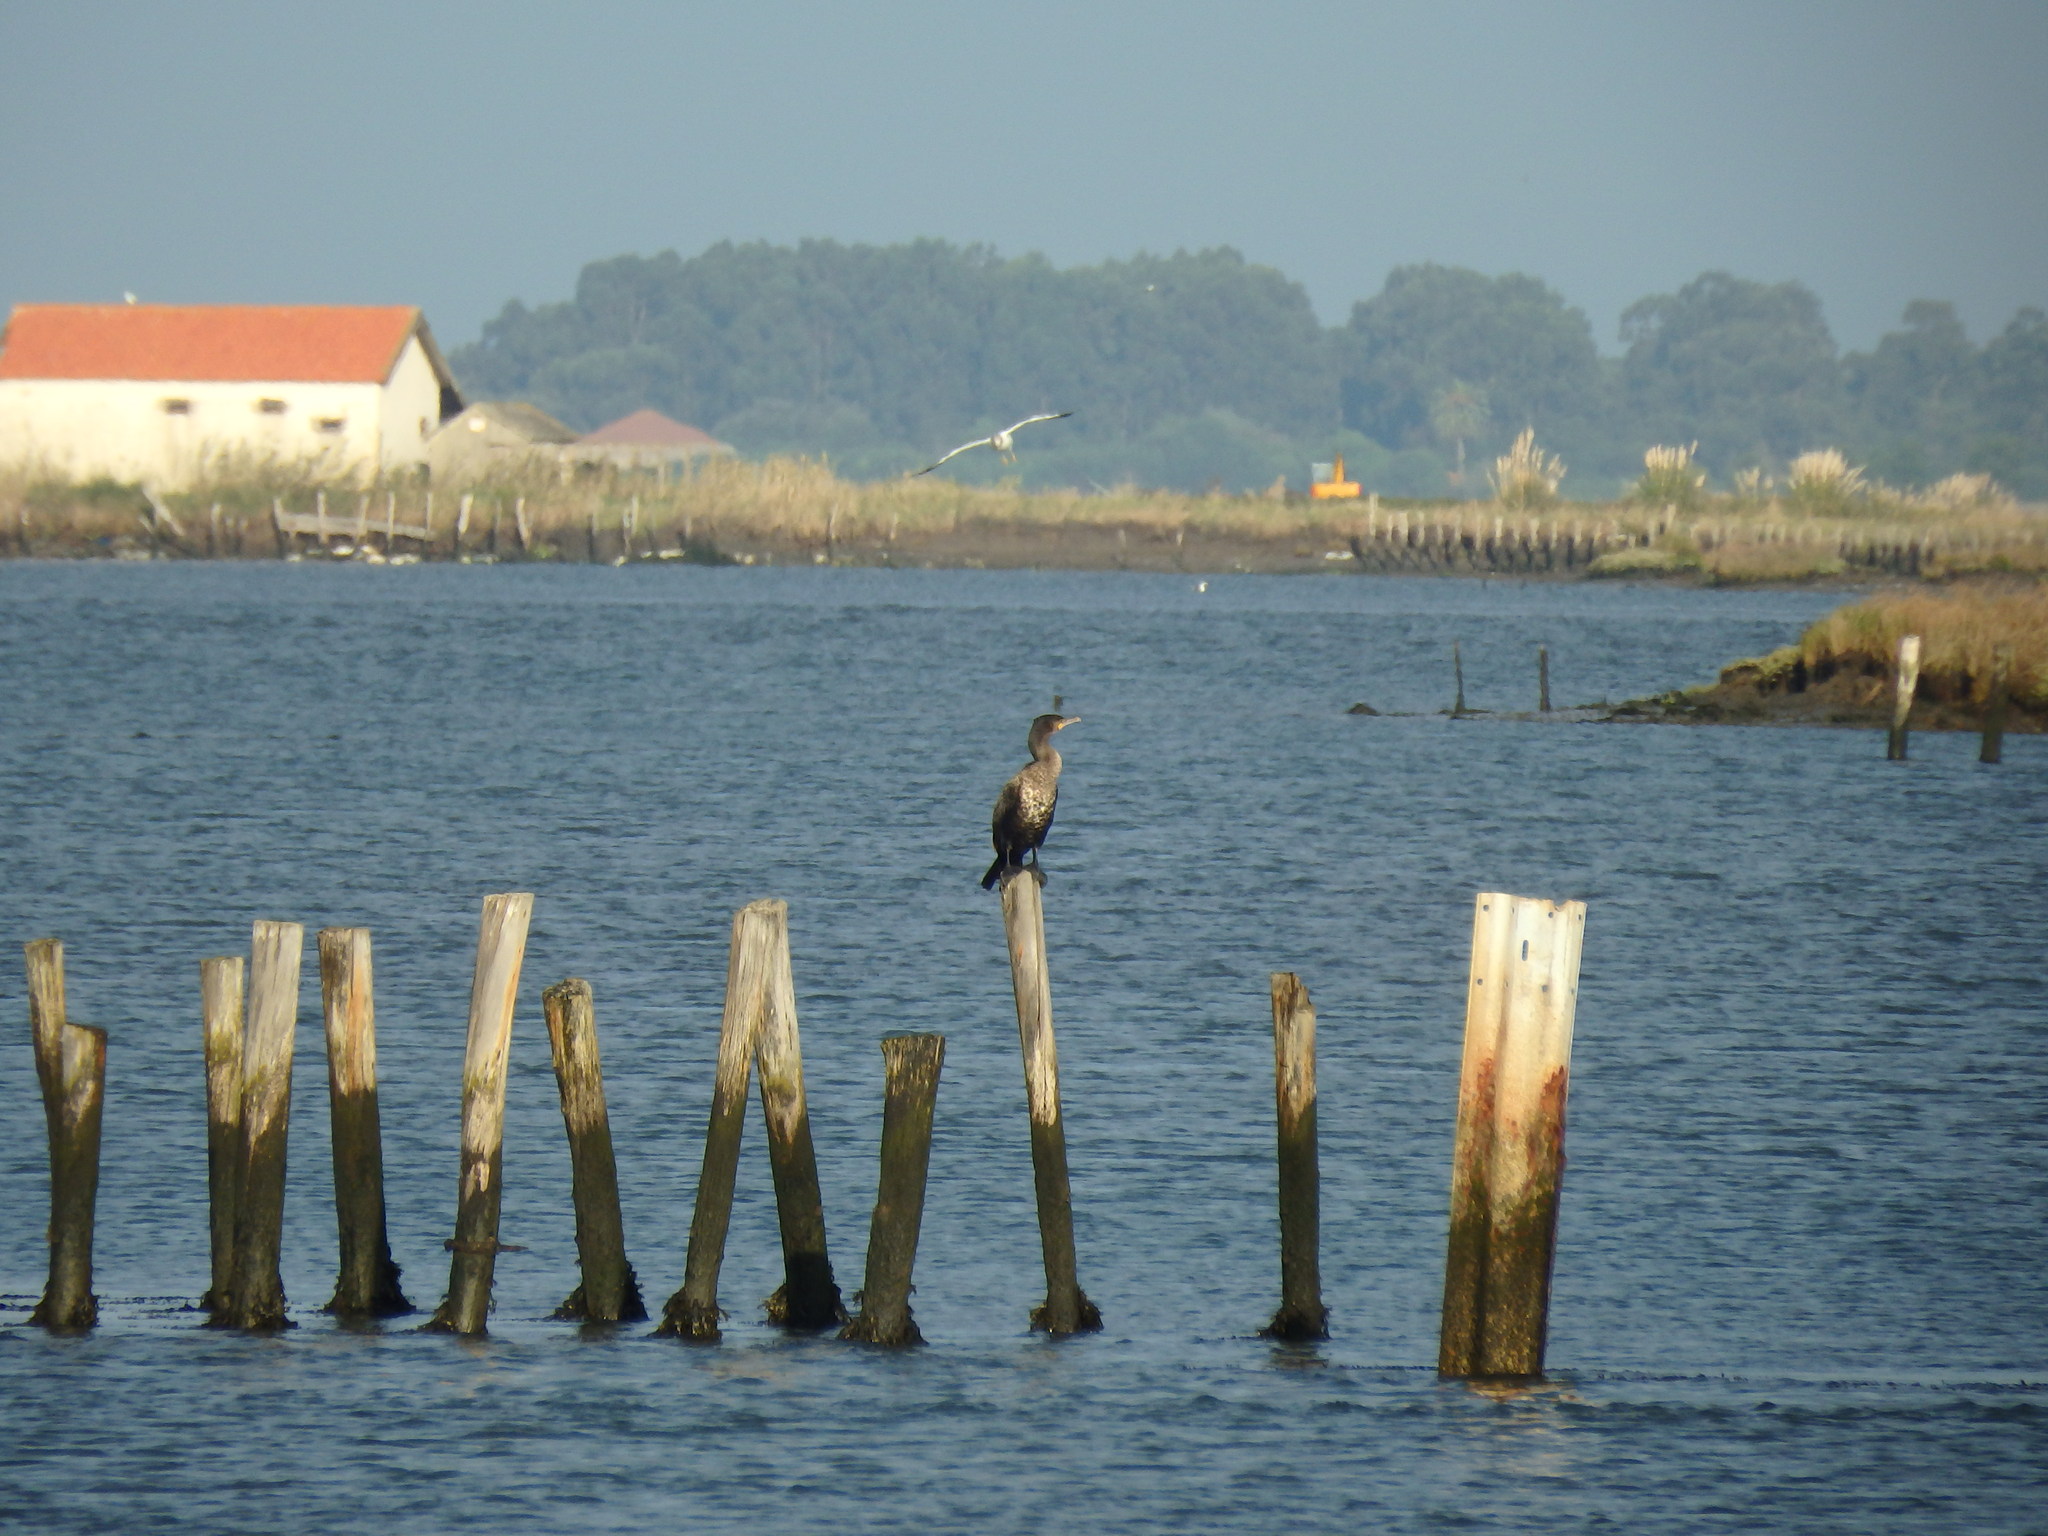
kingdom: Animalia
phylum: Chordata
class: Aves
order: Suliformes
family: Phalacrocoracidae
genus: Phalacrocorax
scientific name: Phalacrocorax carbo
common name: Great cormorant
